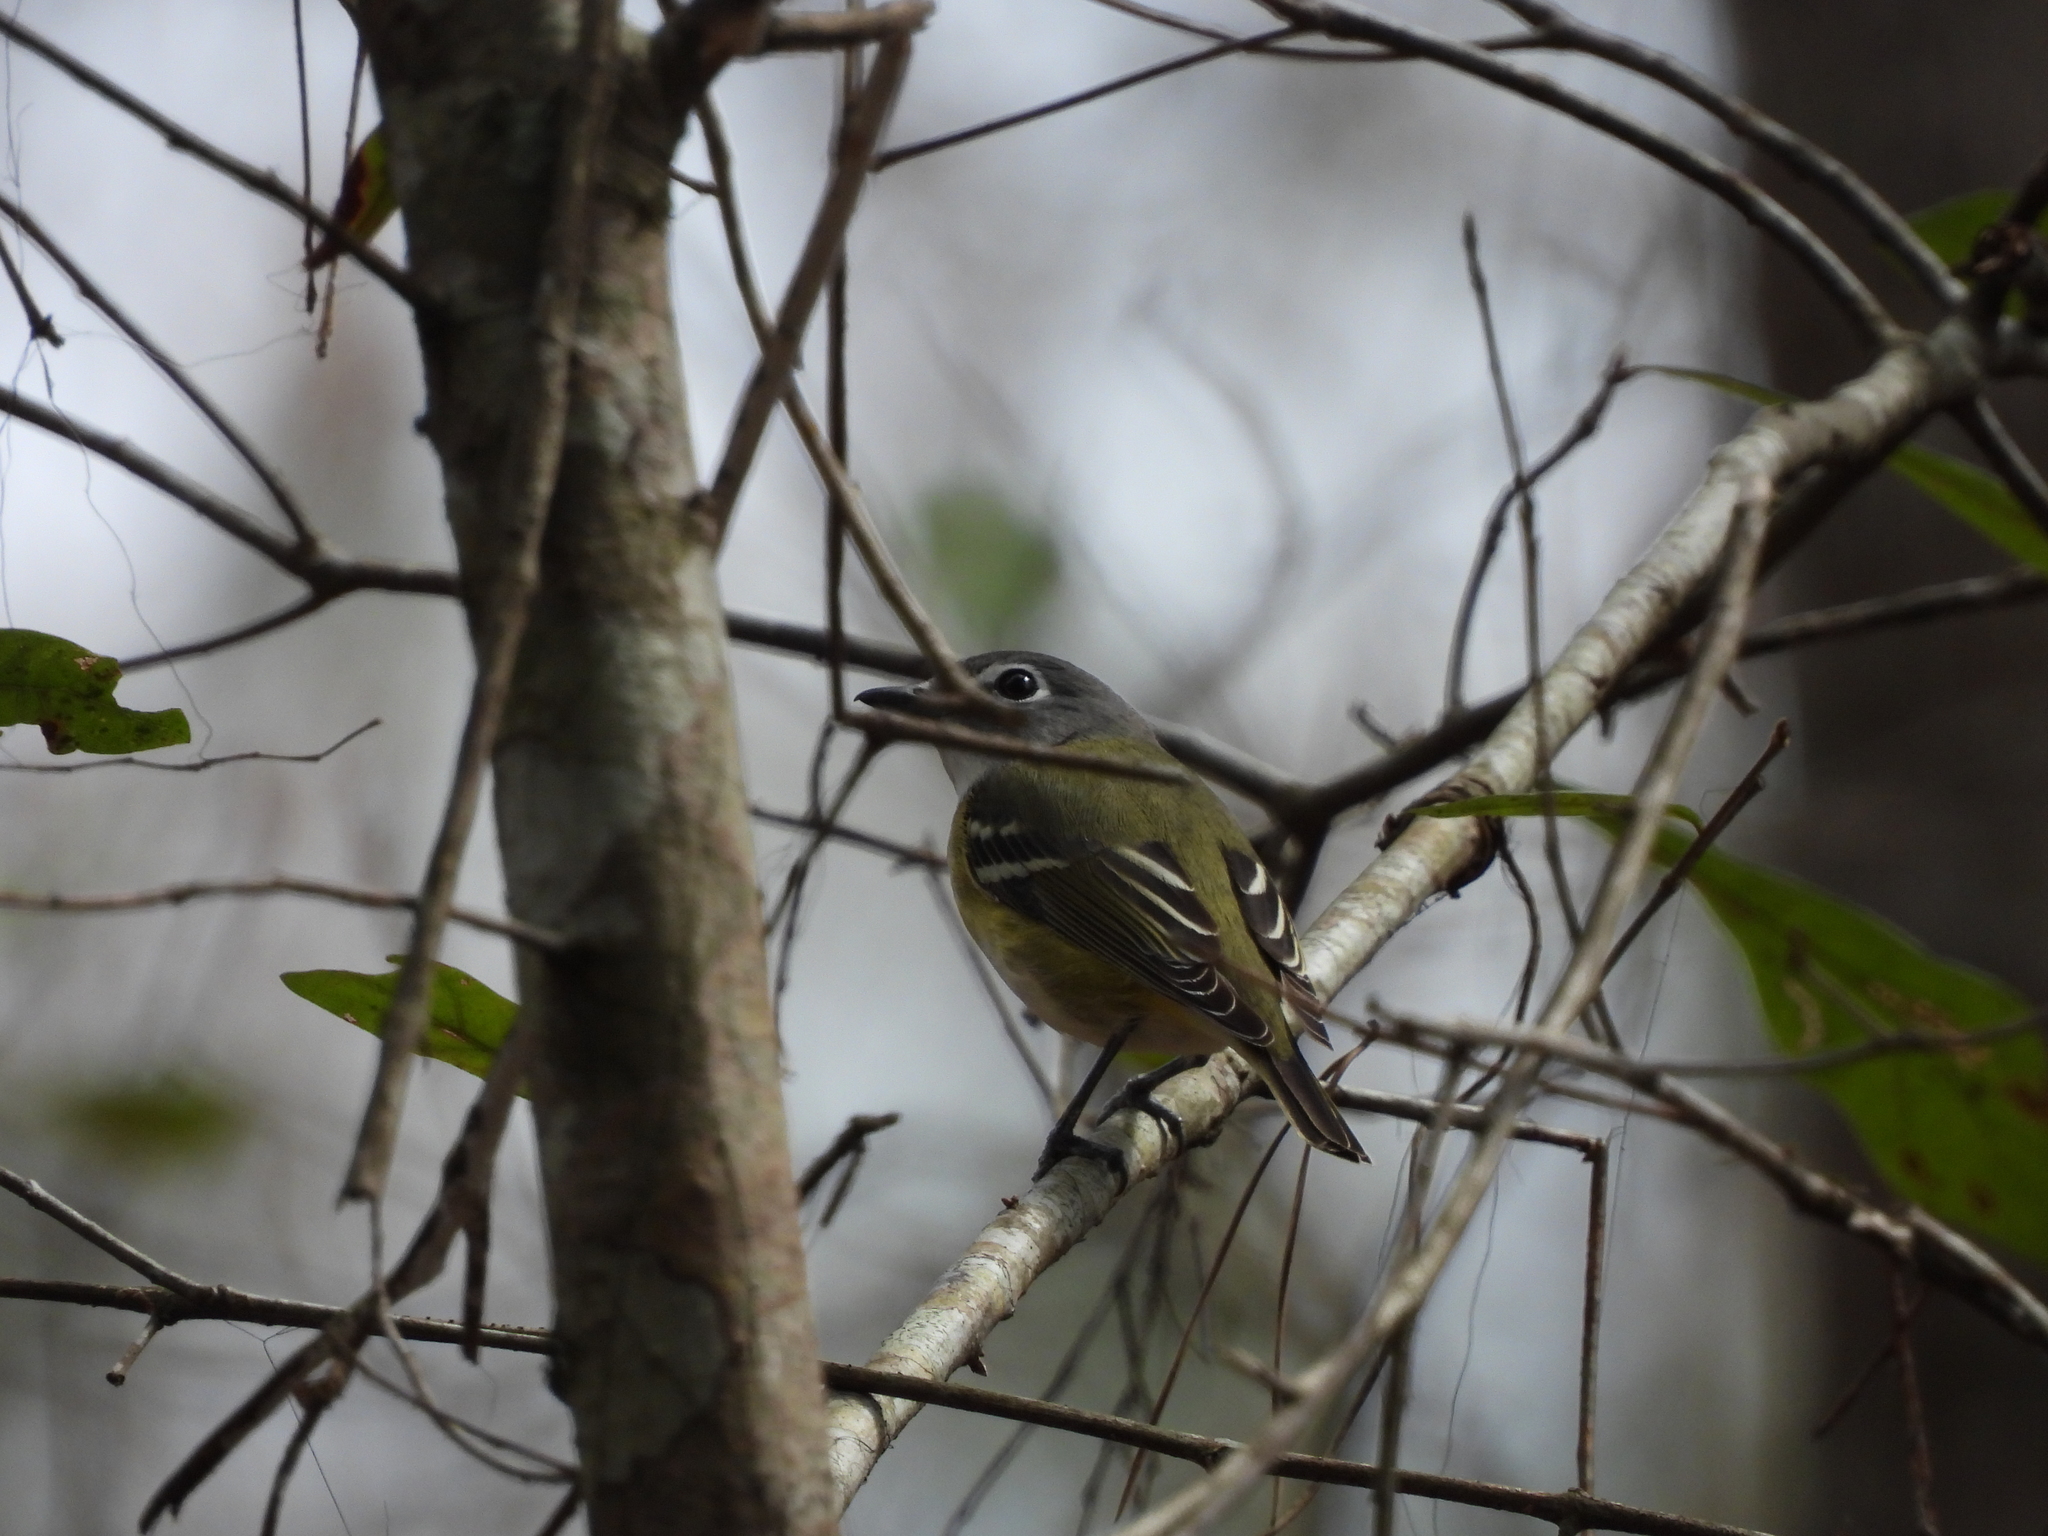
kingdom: Animalia
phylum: Chordata
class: Aves
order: Passeriformes
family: Vireonidae
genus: Vireo
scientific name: Vireo solitarius
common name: Blue-headed vireo
